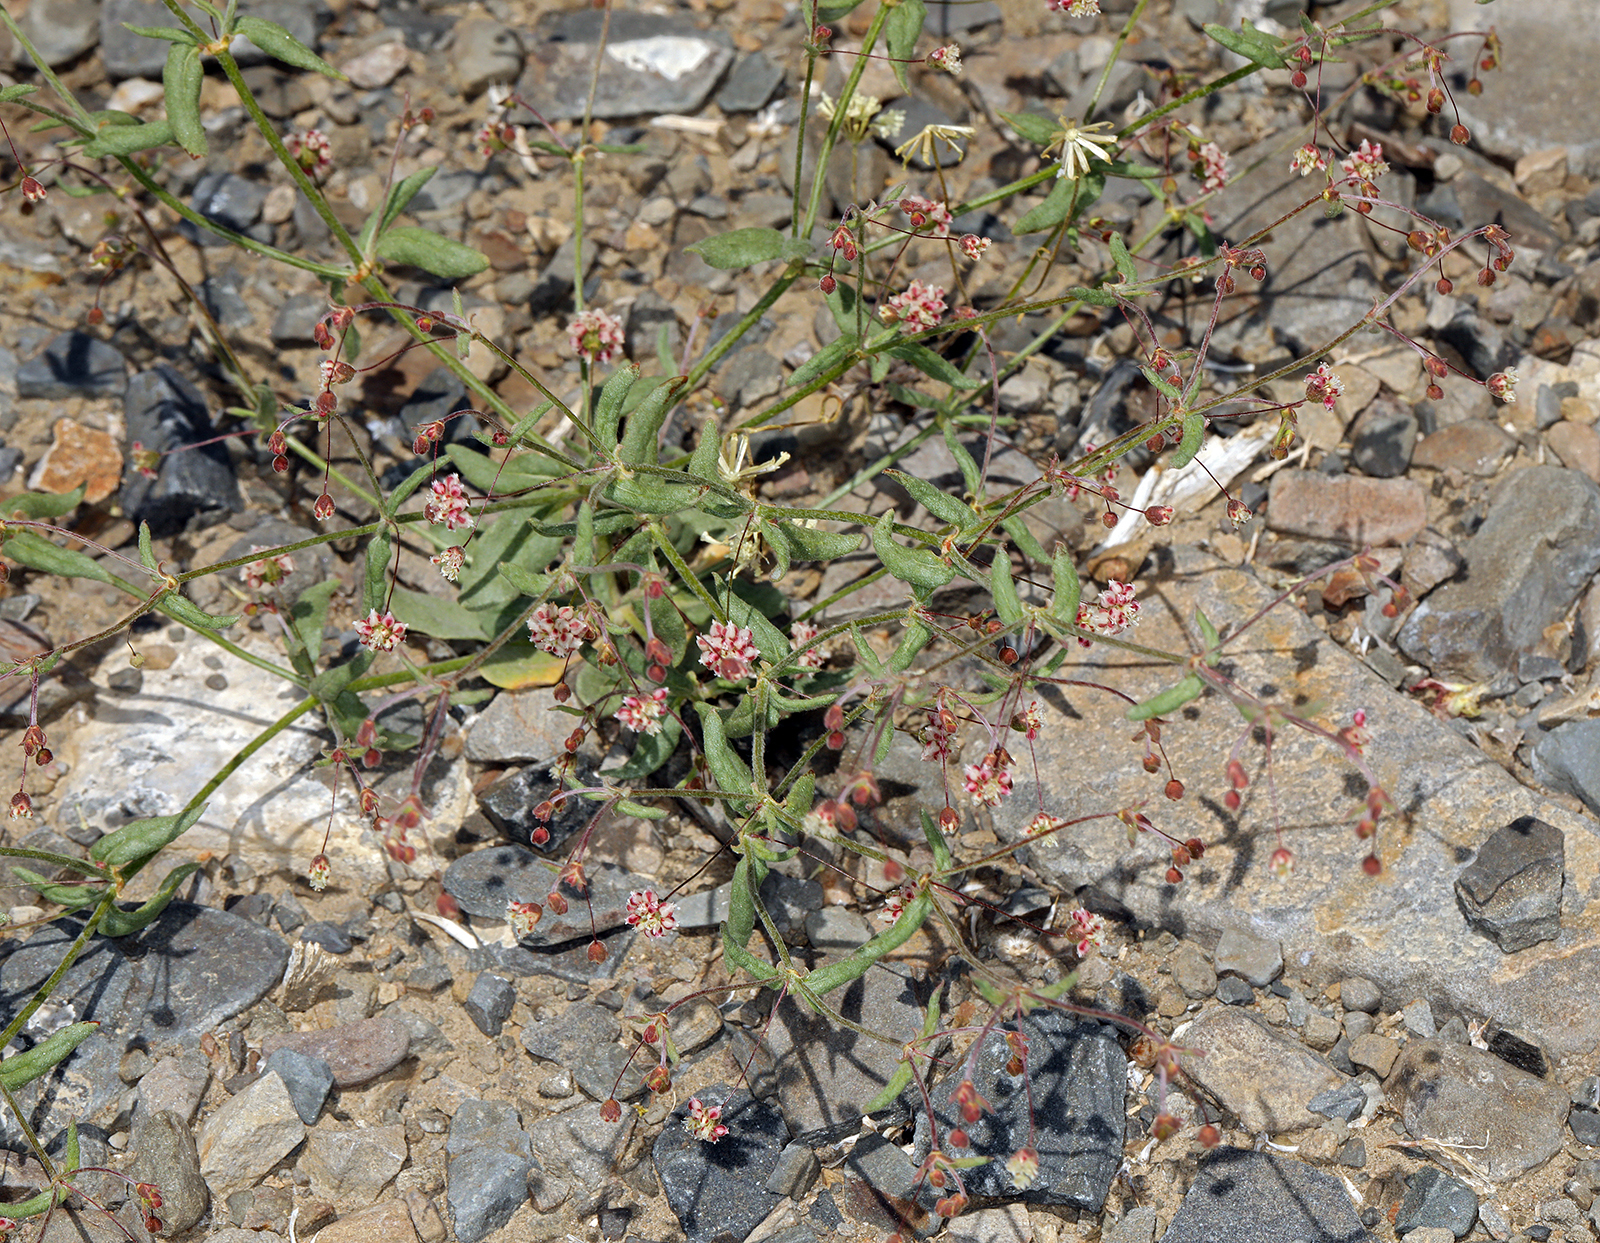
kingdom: Plantae
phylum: Tracheophyta
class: Magnoliopsida
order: Caryophyllales
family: Polygonaceae
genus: Eriogonum
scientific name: Eriogonum maculatum
